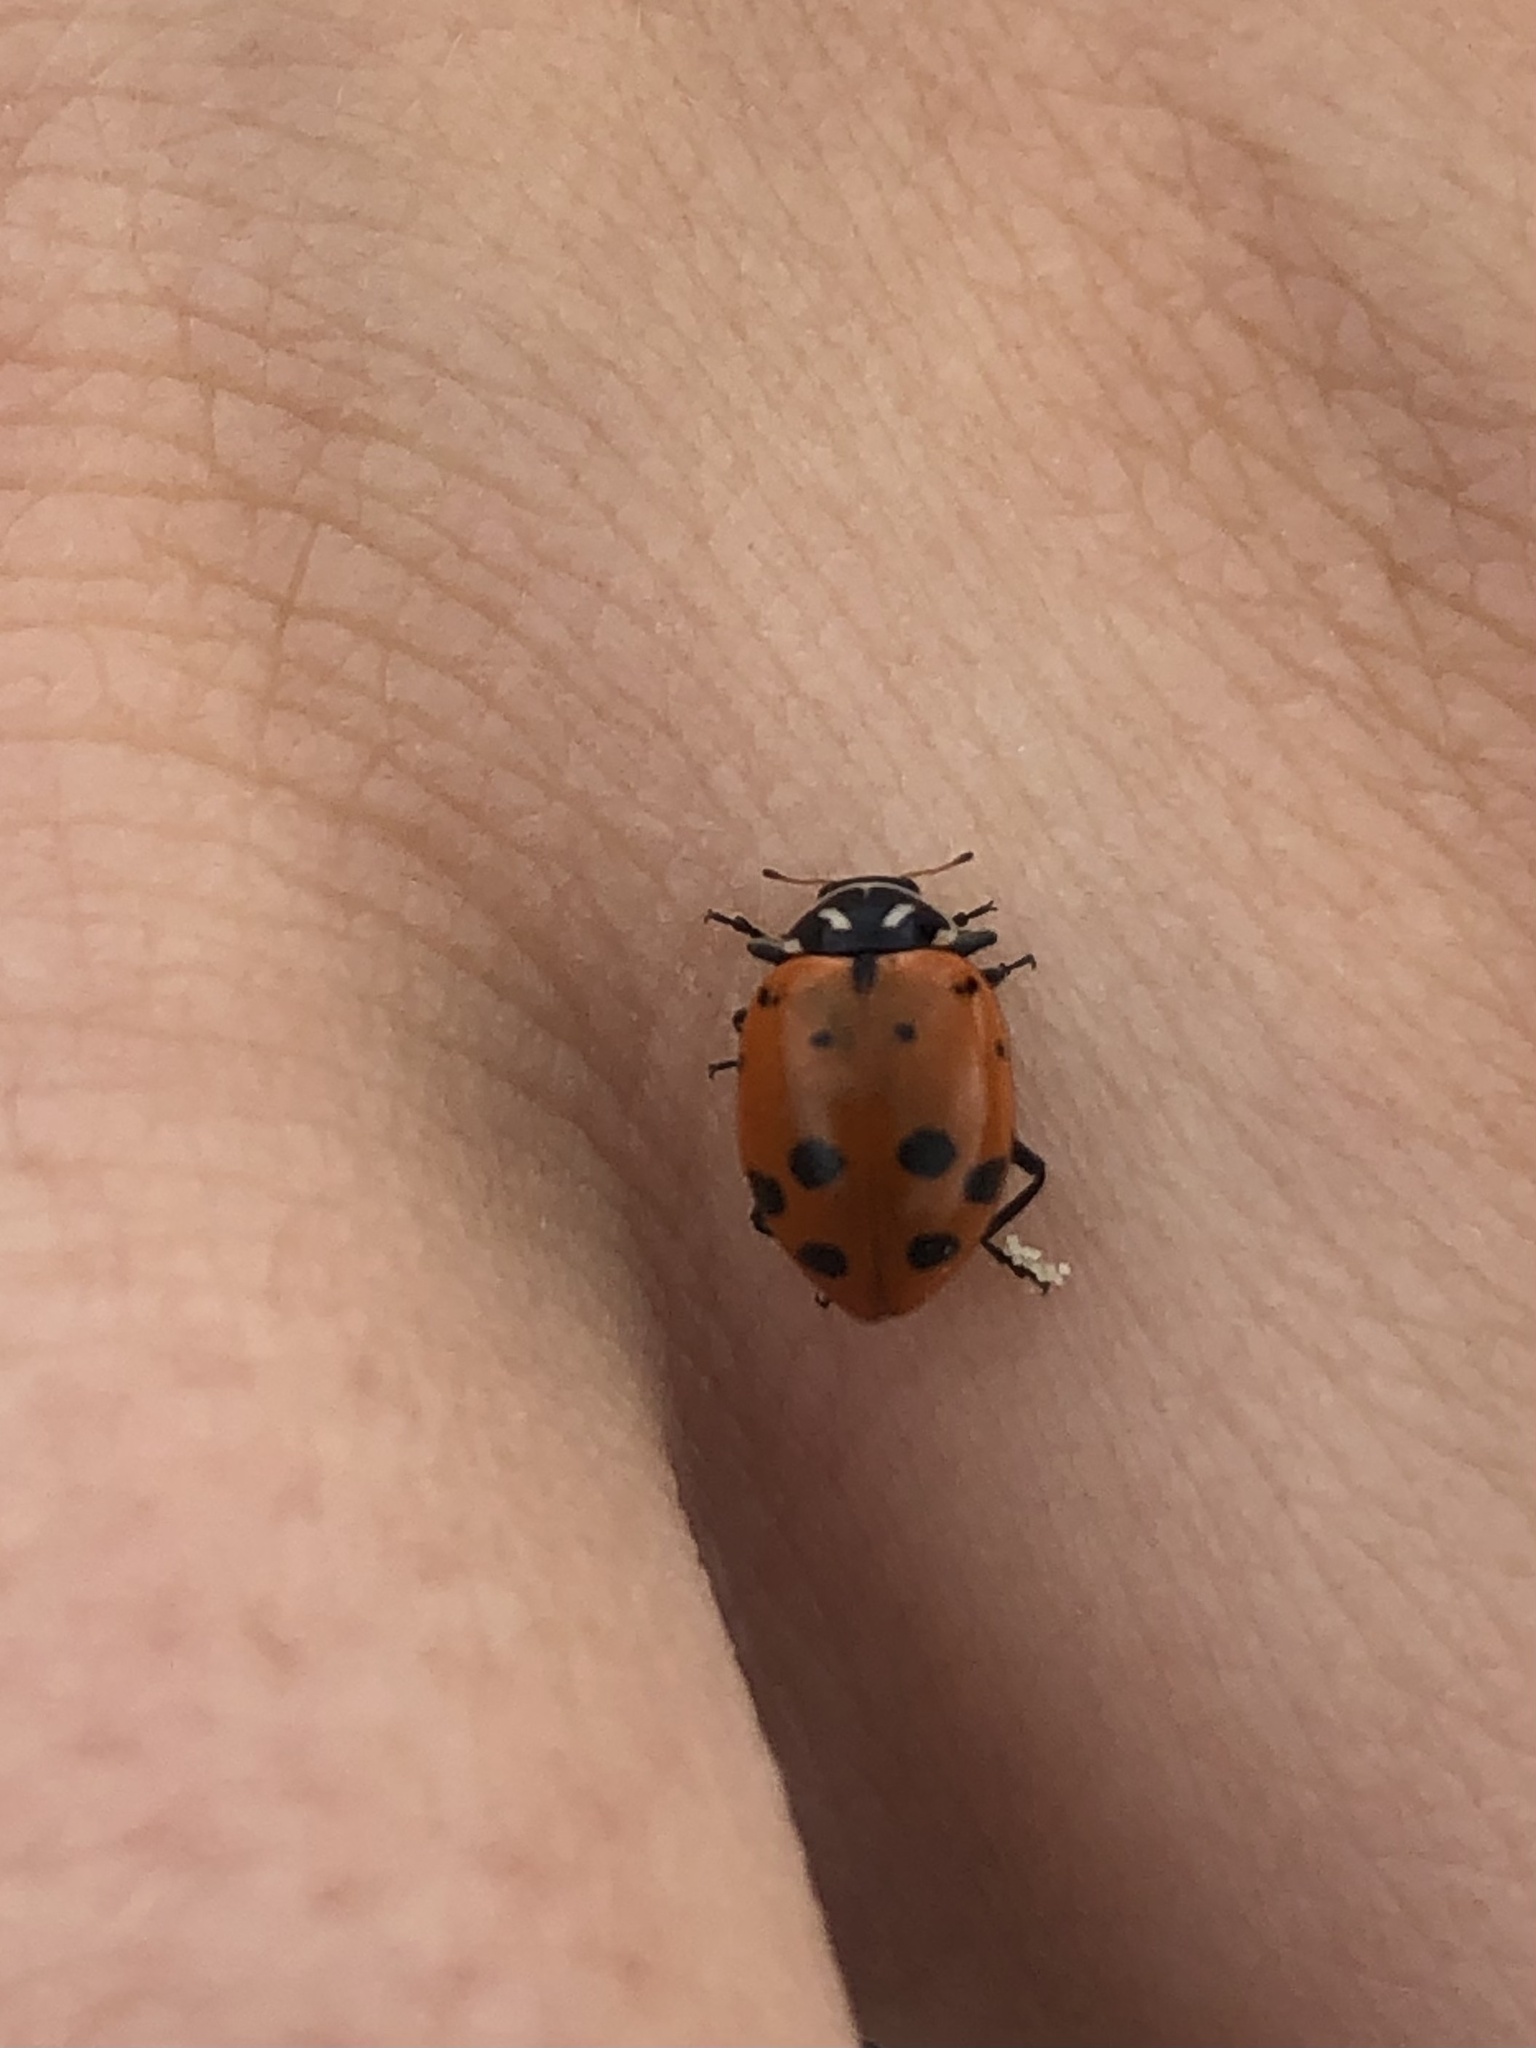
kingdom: Animalia
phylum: Arthropoda
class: Insecta
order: Coleoptera
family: Coccinellidae
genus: Hippodamia
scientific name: Hippodamia convergens
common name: Convergent lady beetle
